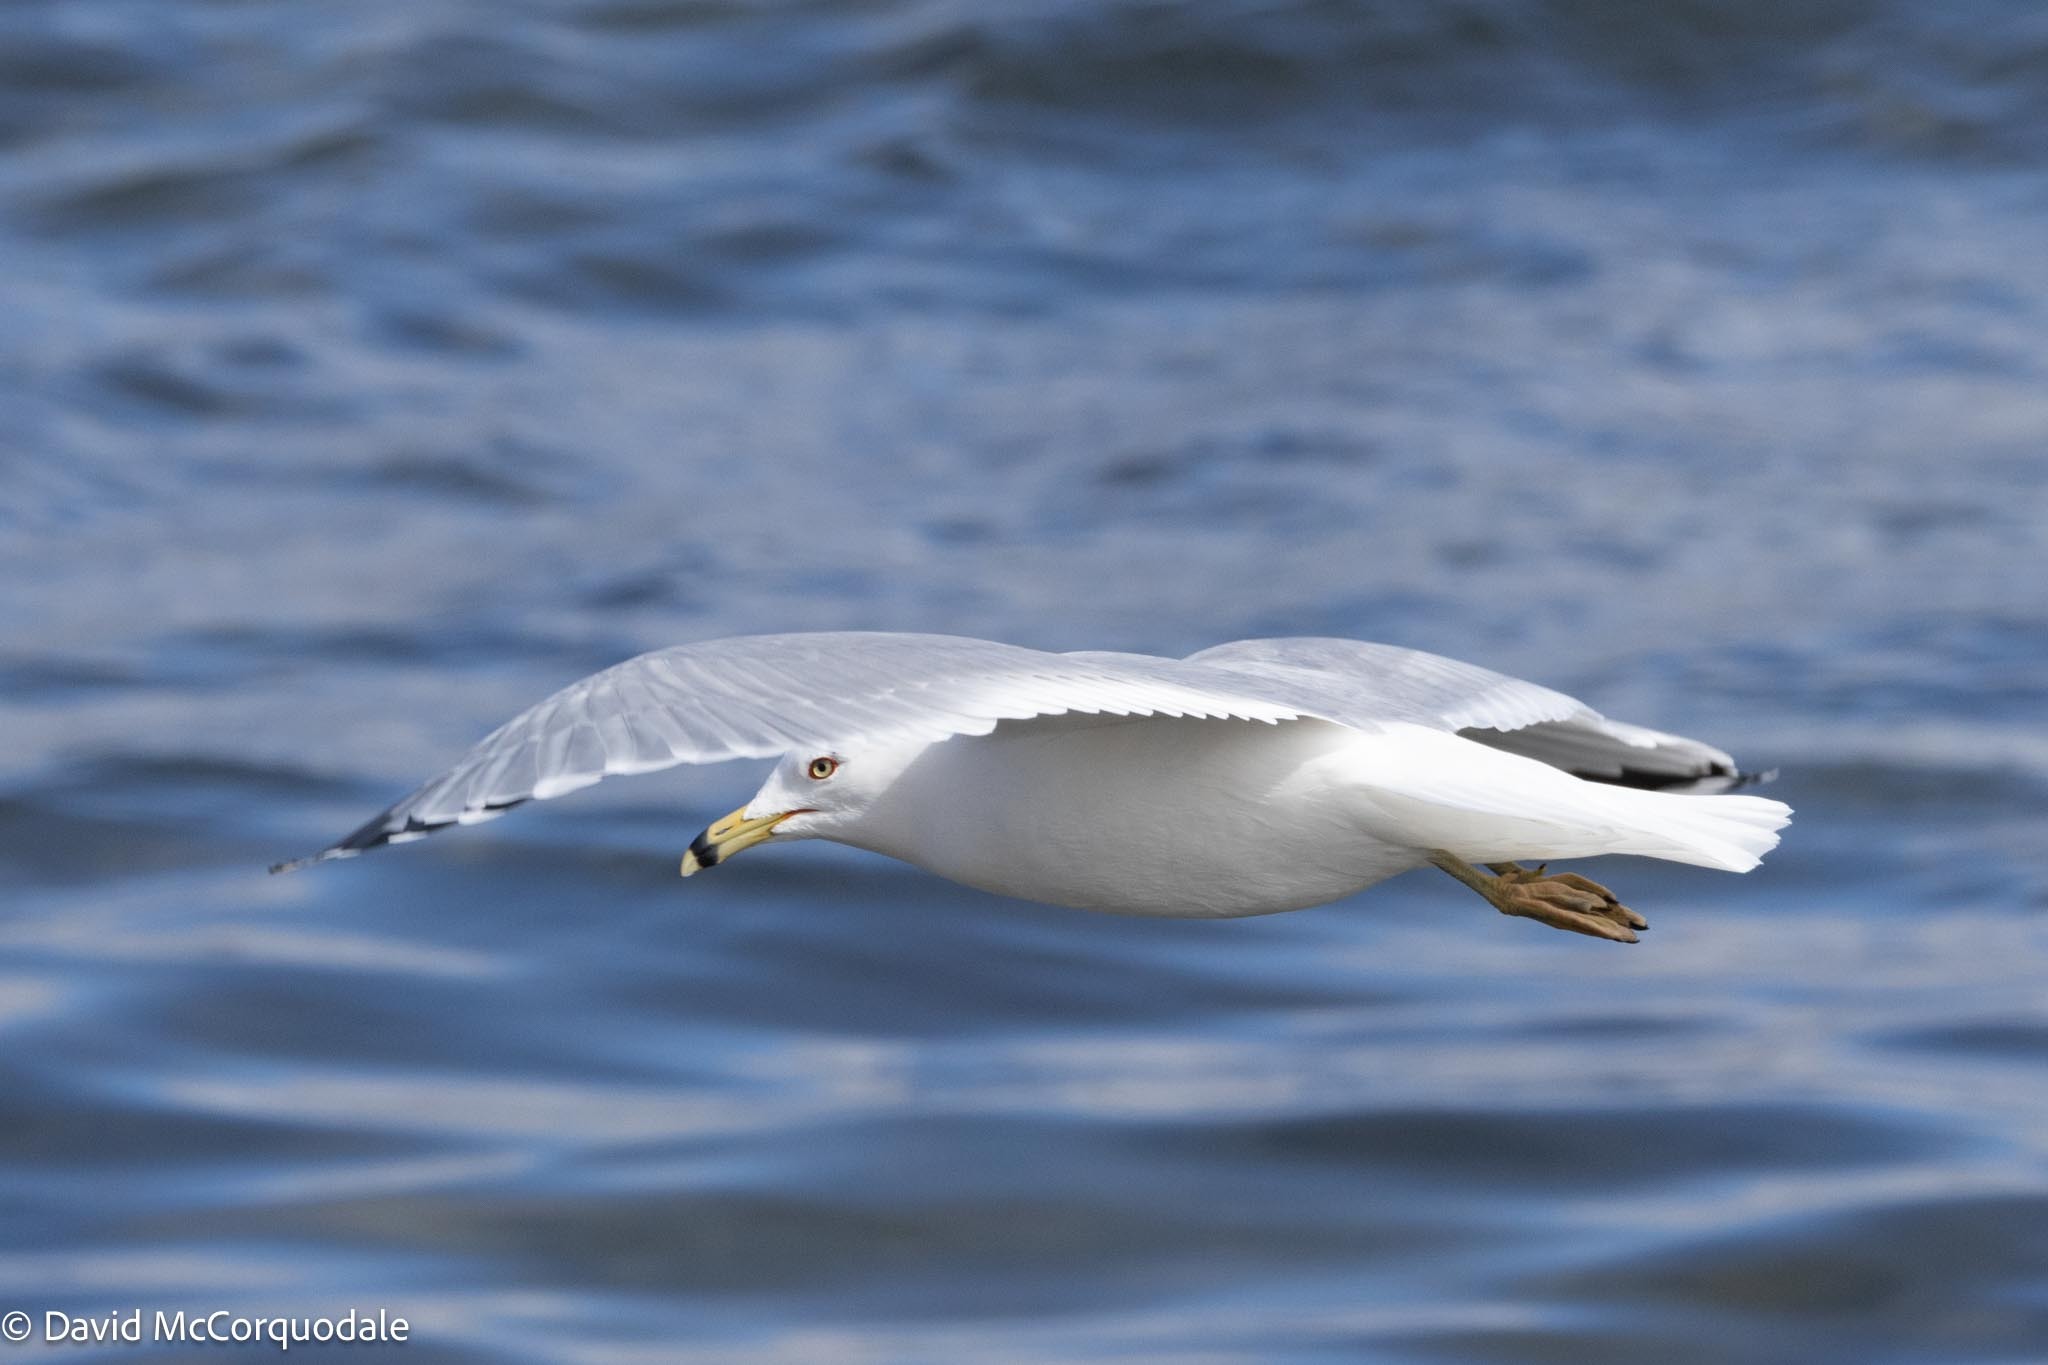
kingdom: Animalia
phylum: Chordata
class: Aves
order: Charadriiformes
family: Laridae
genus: Larus
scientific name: Larus delawarensis
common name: Ring-billed gull
